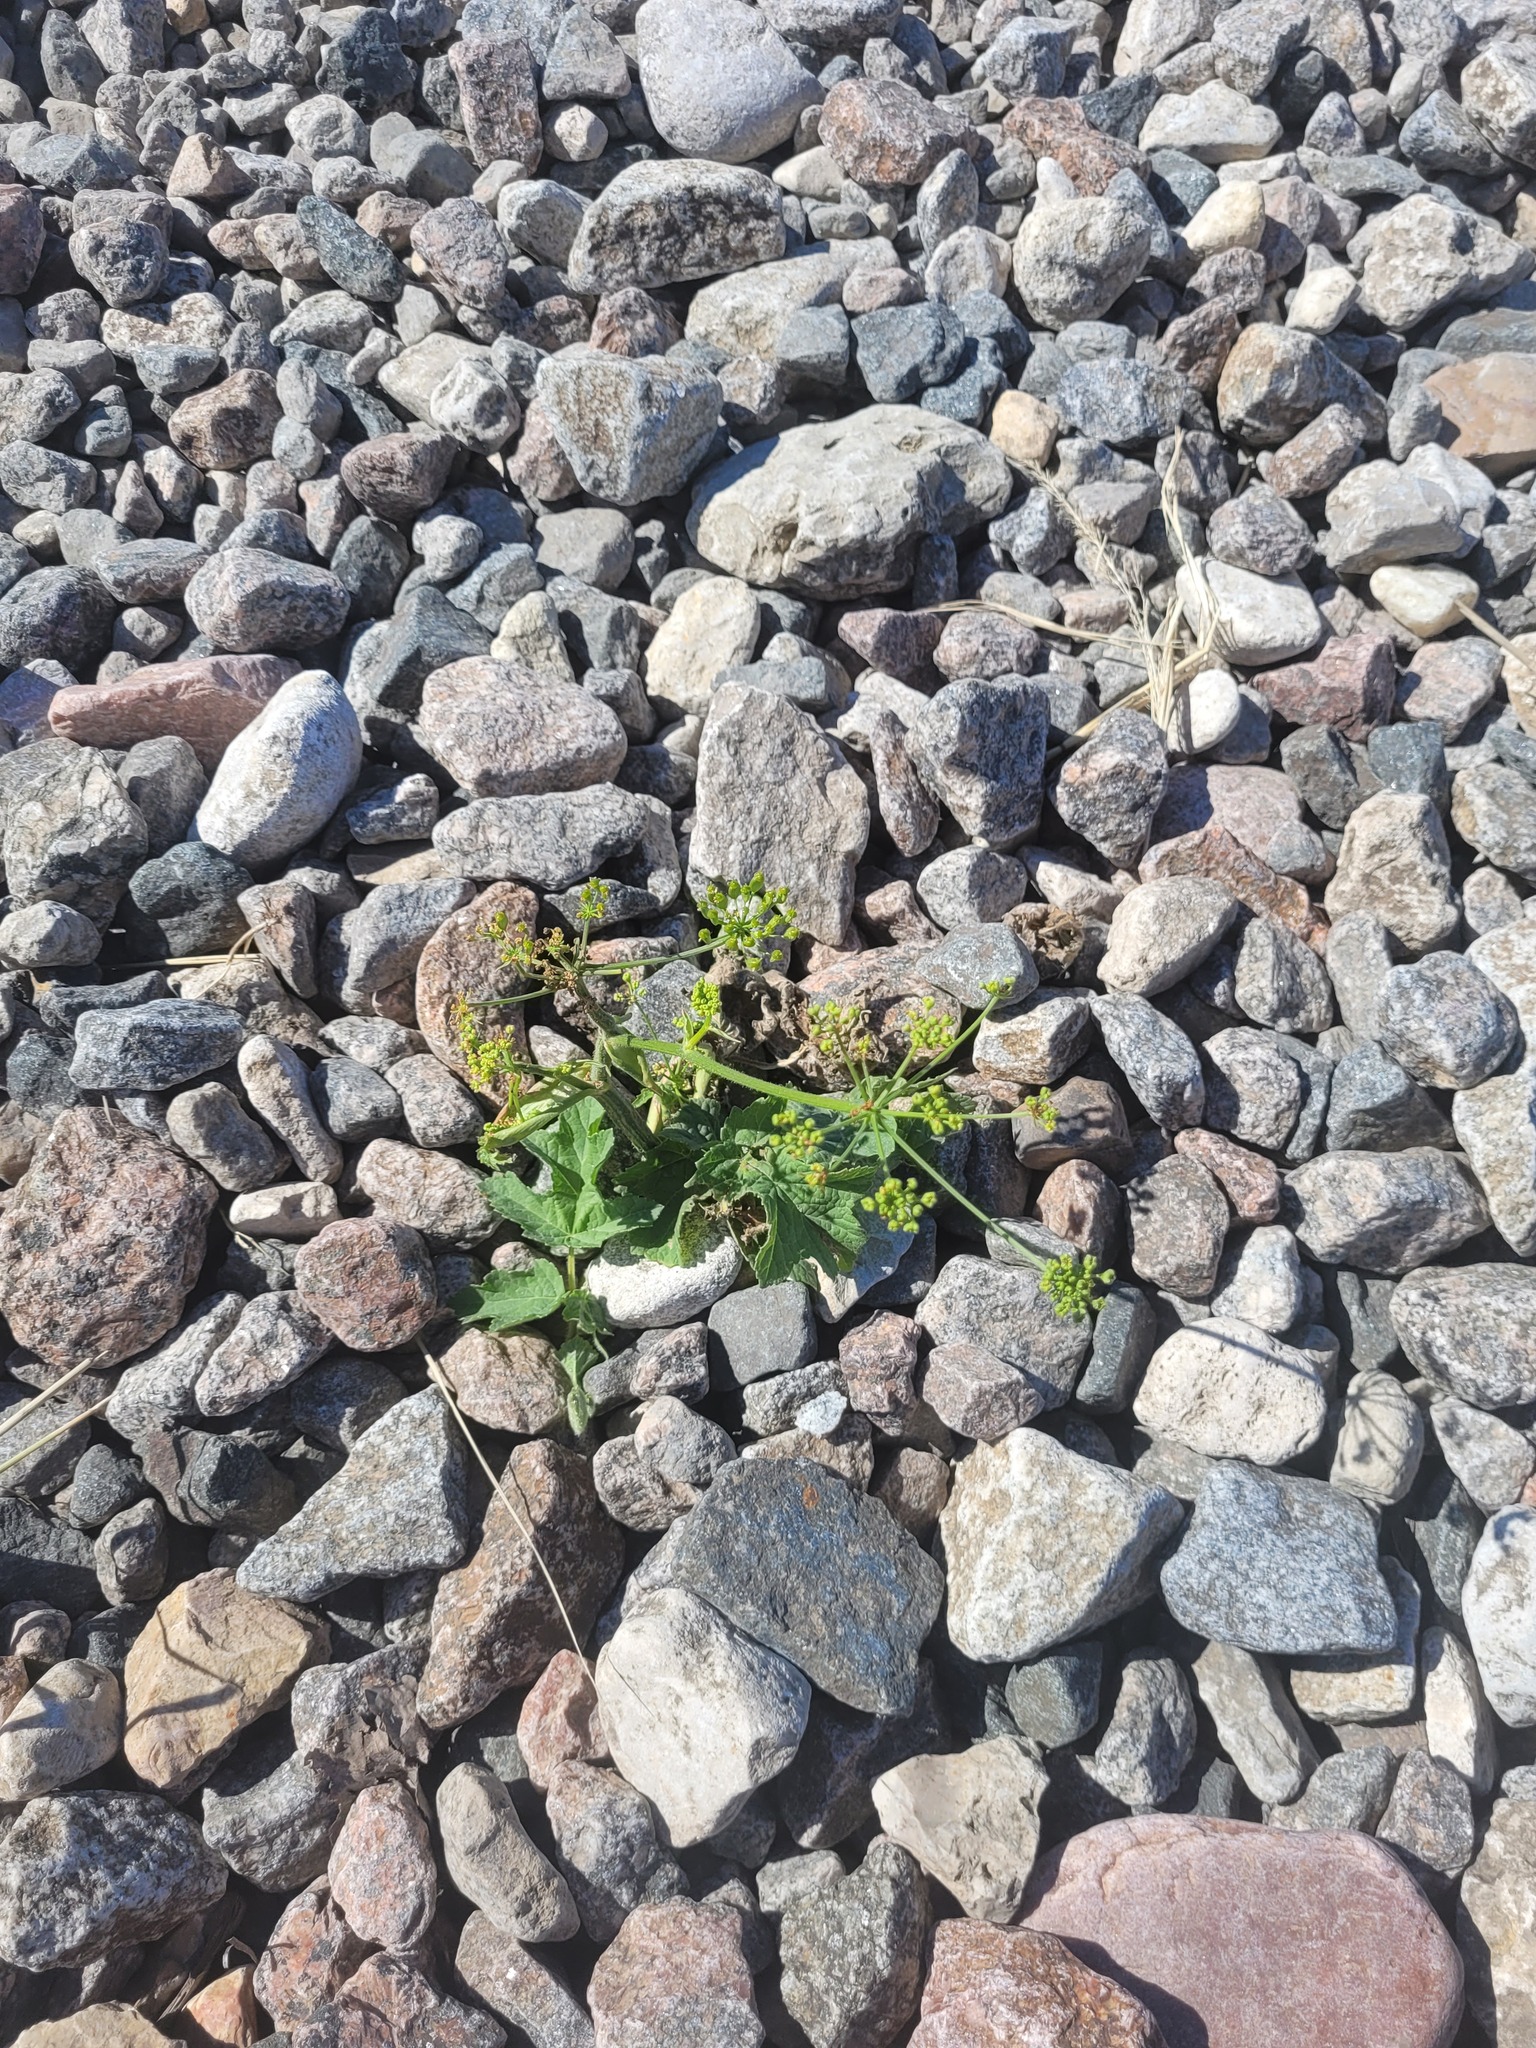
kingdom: Plantae
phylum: Tracheophyta
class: Magnoliopsida
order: Apiales
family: Apiaceae
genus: Pastinaca
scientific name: Pastinaca sativa
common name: Wild parsnip
